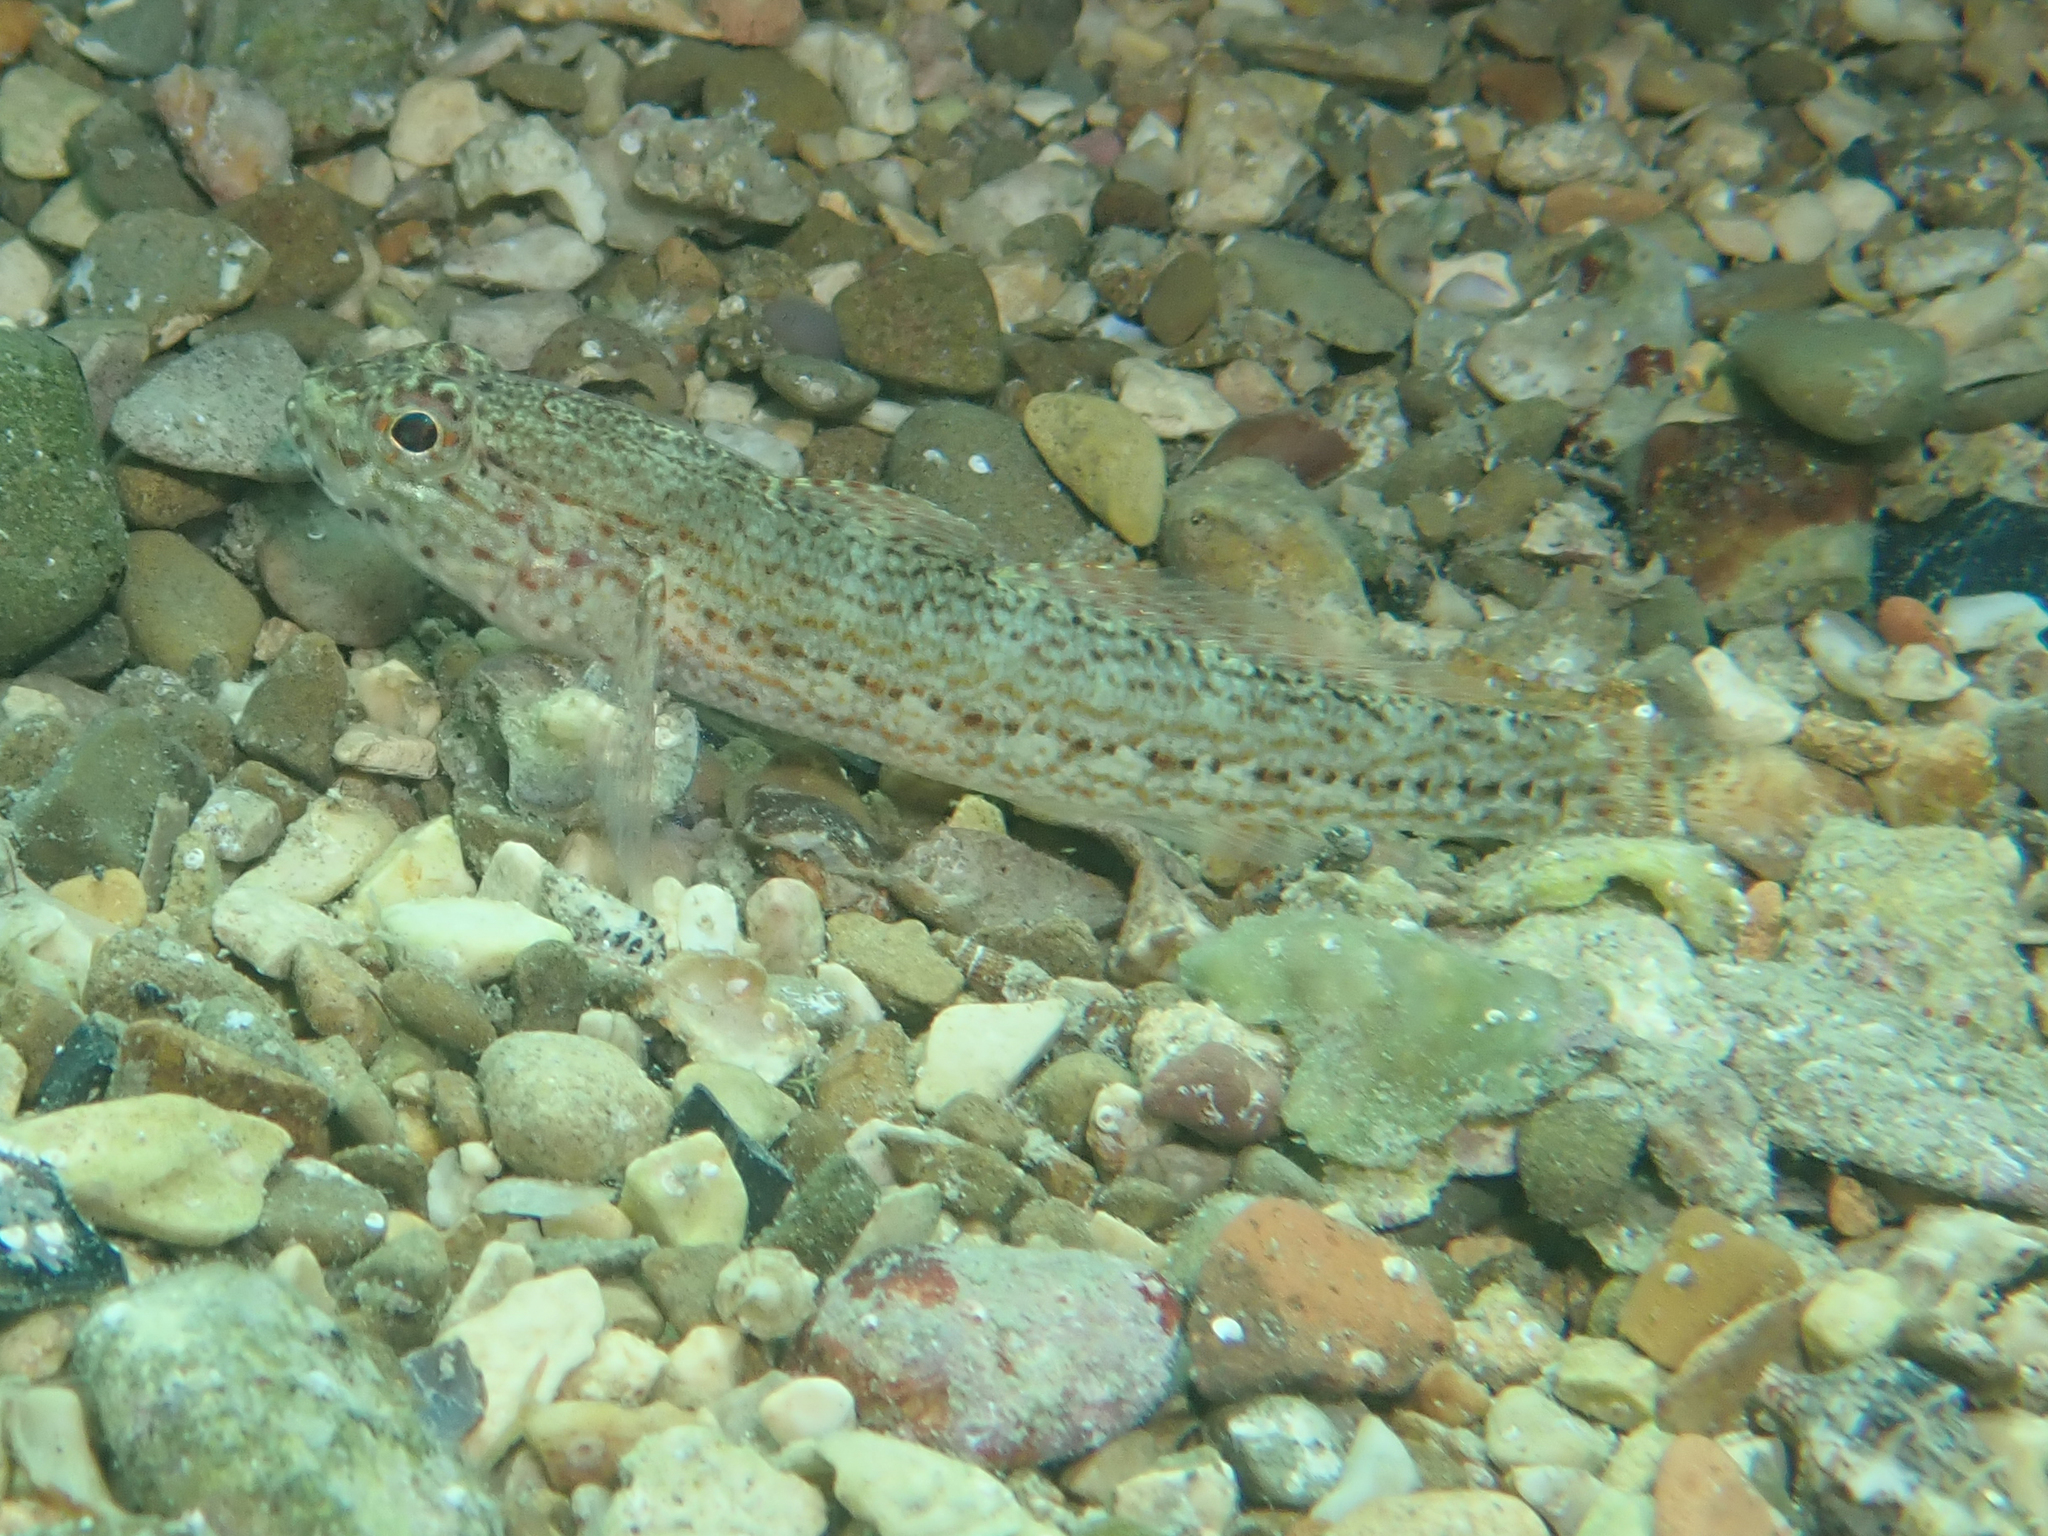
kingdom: Animalia
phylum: Chordata
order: Perciformes
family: Gobiidae
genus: Gobius
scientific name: Gobius fallax
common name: Sarato's goby
